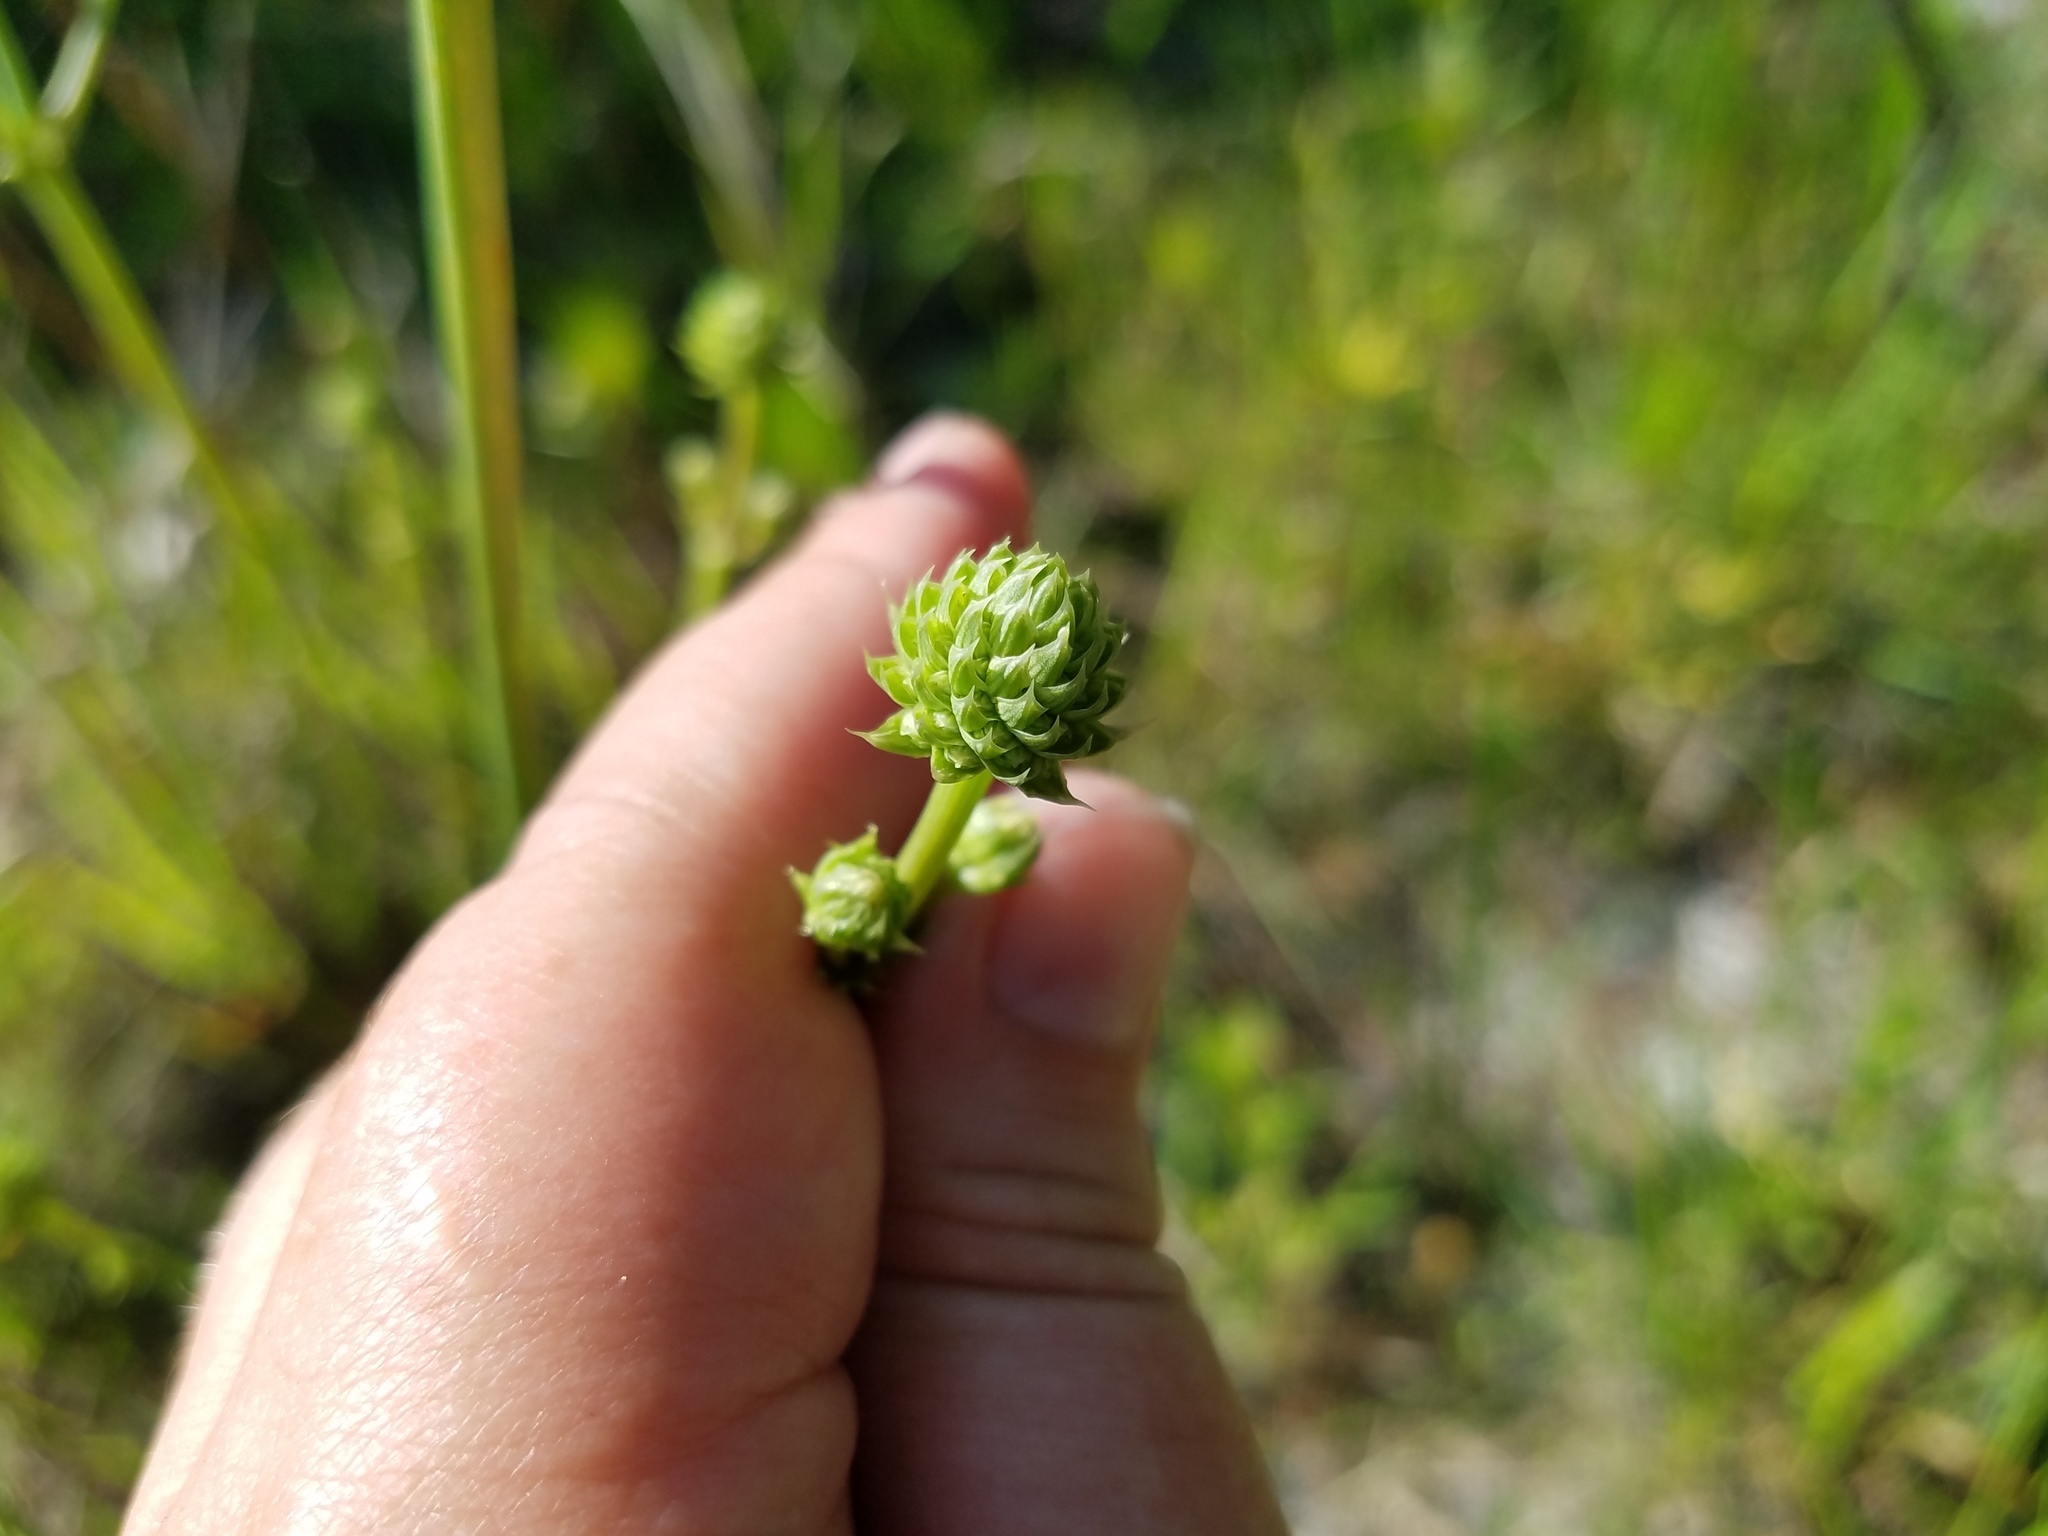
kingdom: Plantae
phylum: Tracheophyta
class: Magnoliopsida
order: Apiales
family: Apiaceae
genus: Eryngium
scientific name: Eryngium yuccifolium
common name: Button eryngo
